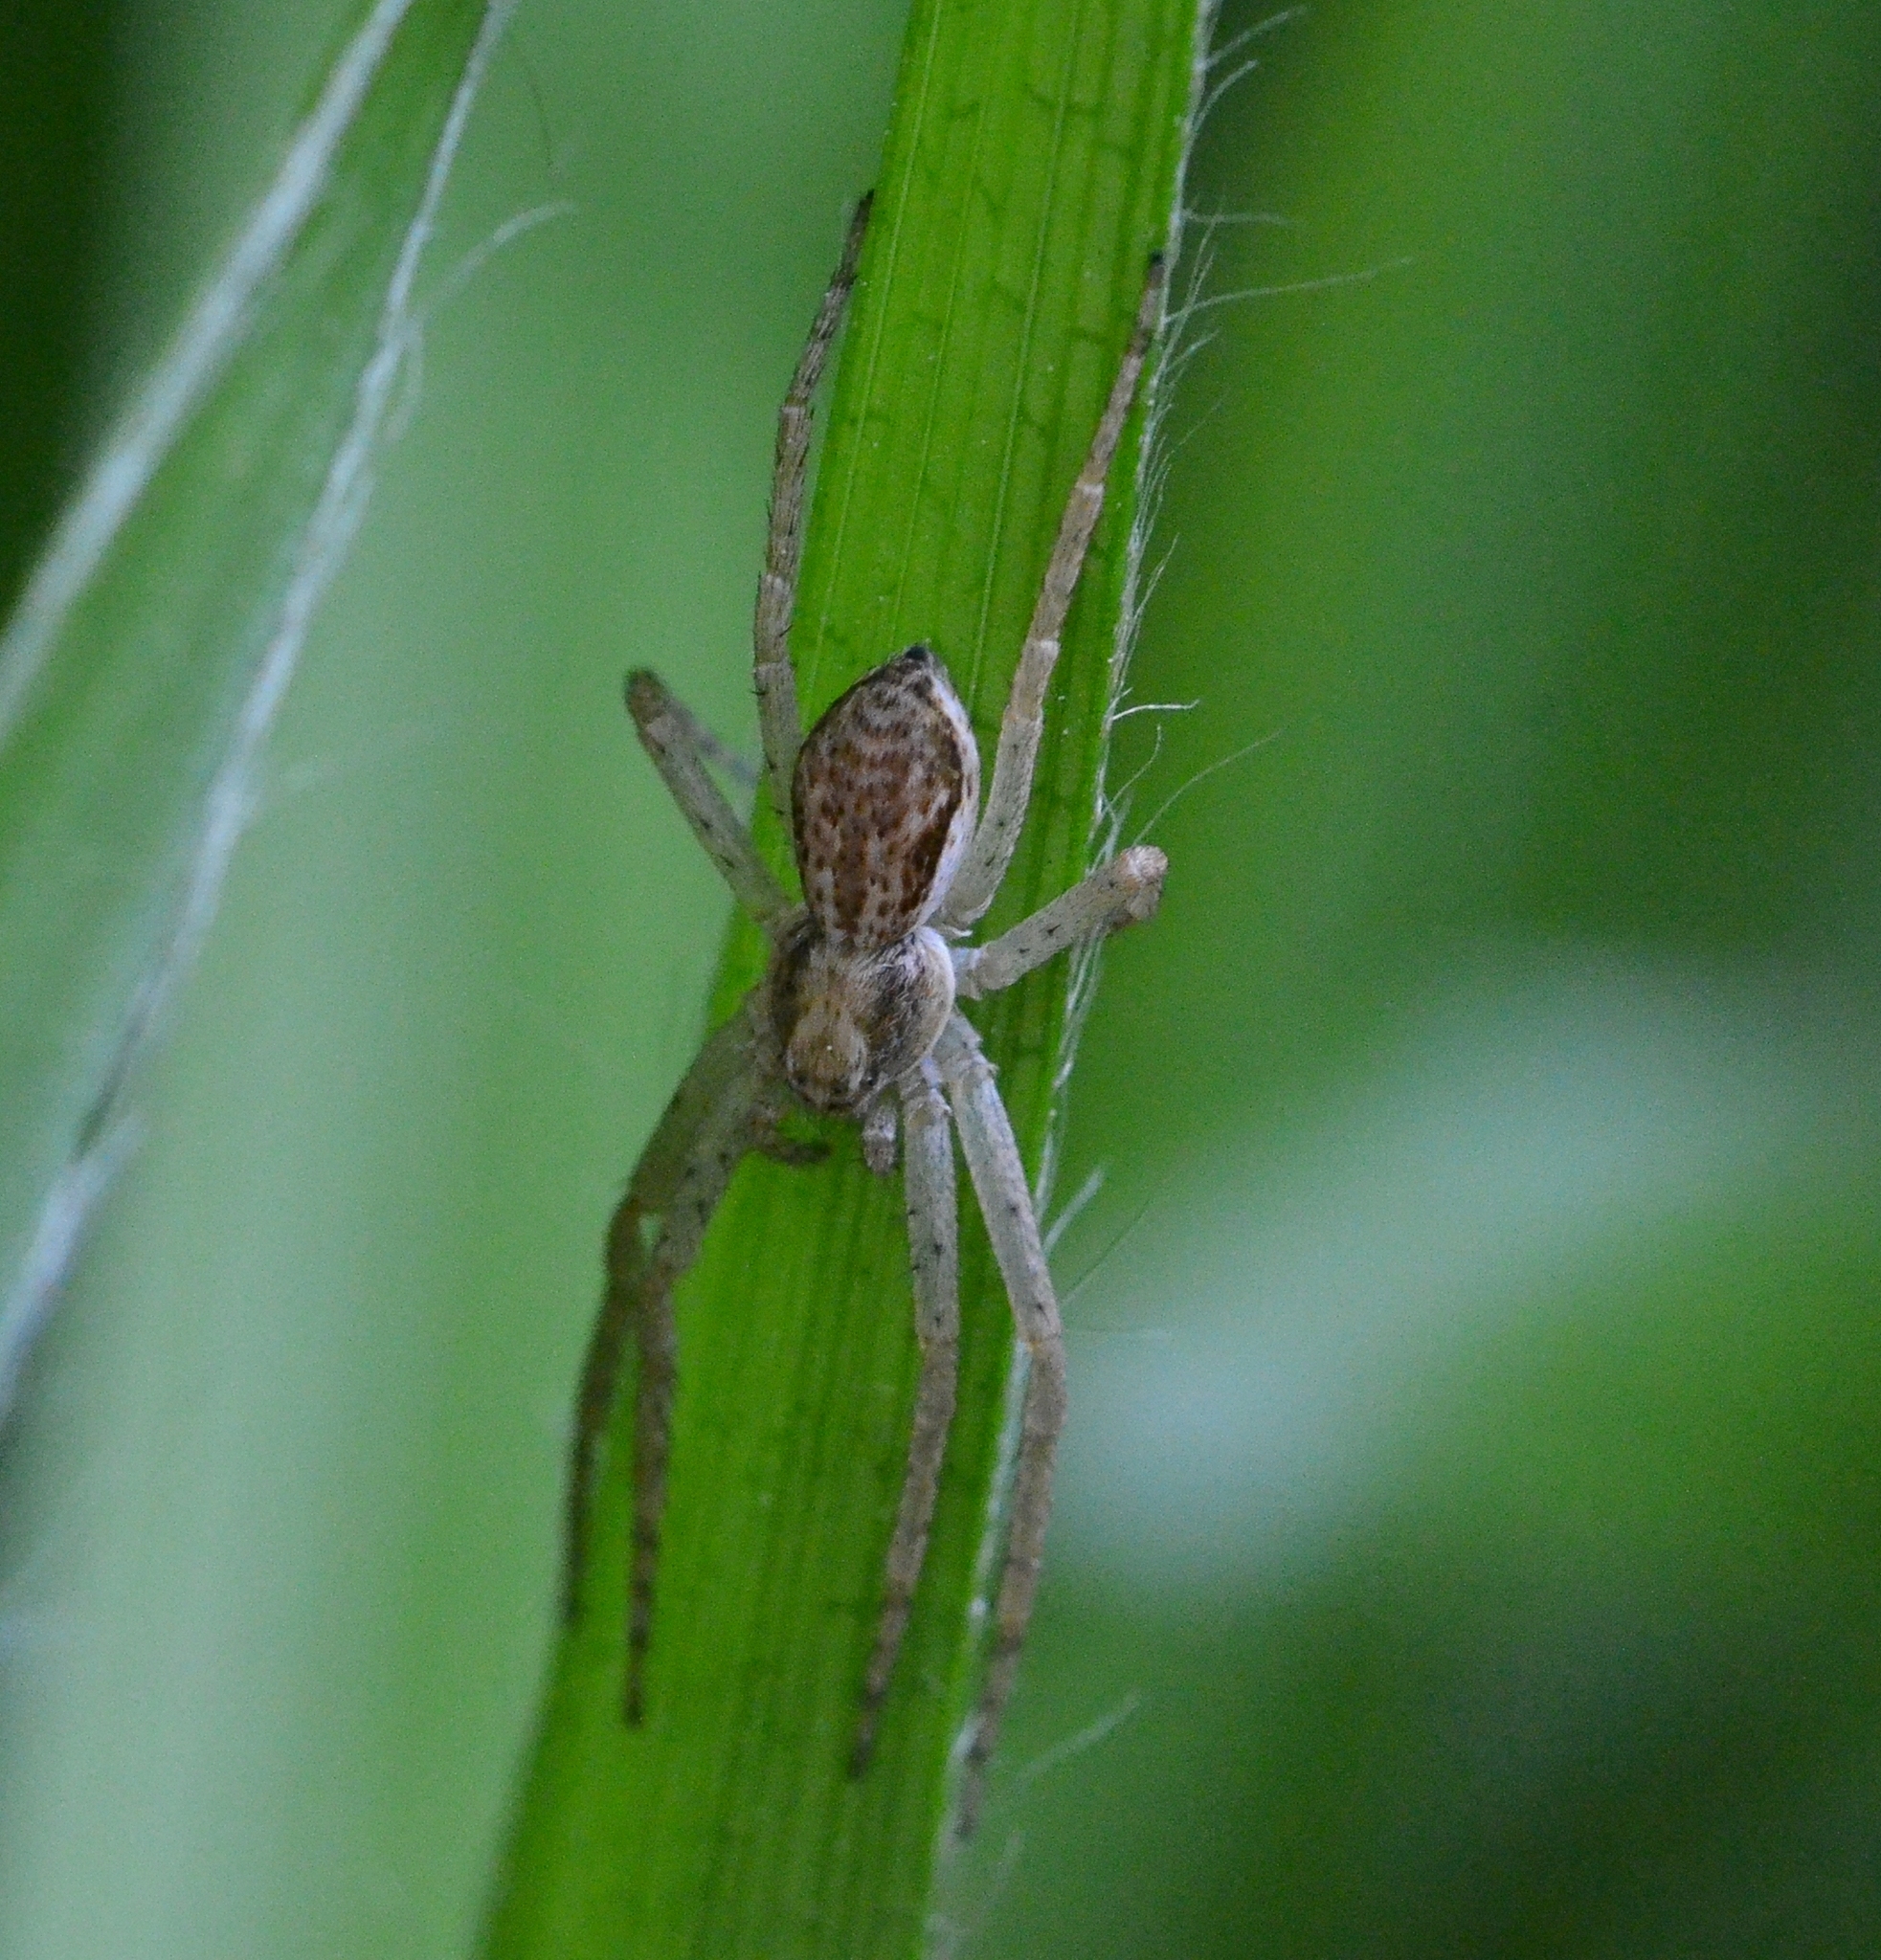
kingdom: Animalia
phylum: Arthropoda
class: Arachnida
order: Araneae
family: Philodromidae
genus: Philodromus
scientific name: Philodromus dispar
